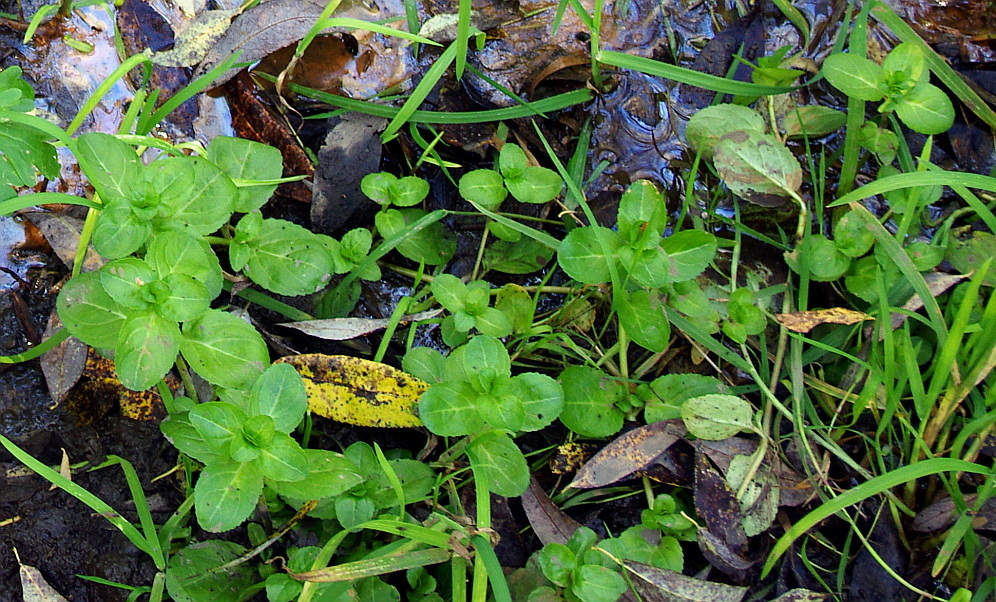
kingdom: Plantae
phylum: Tracheophyta
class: Magnoliopsida
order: Lamiales
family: Plantaginaceae
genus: Veronica
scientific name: Veronica beccabunga
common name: Brooklime
